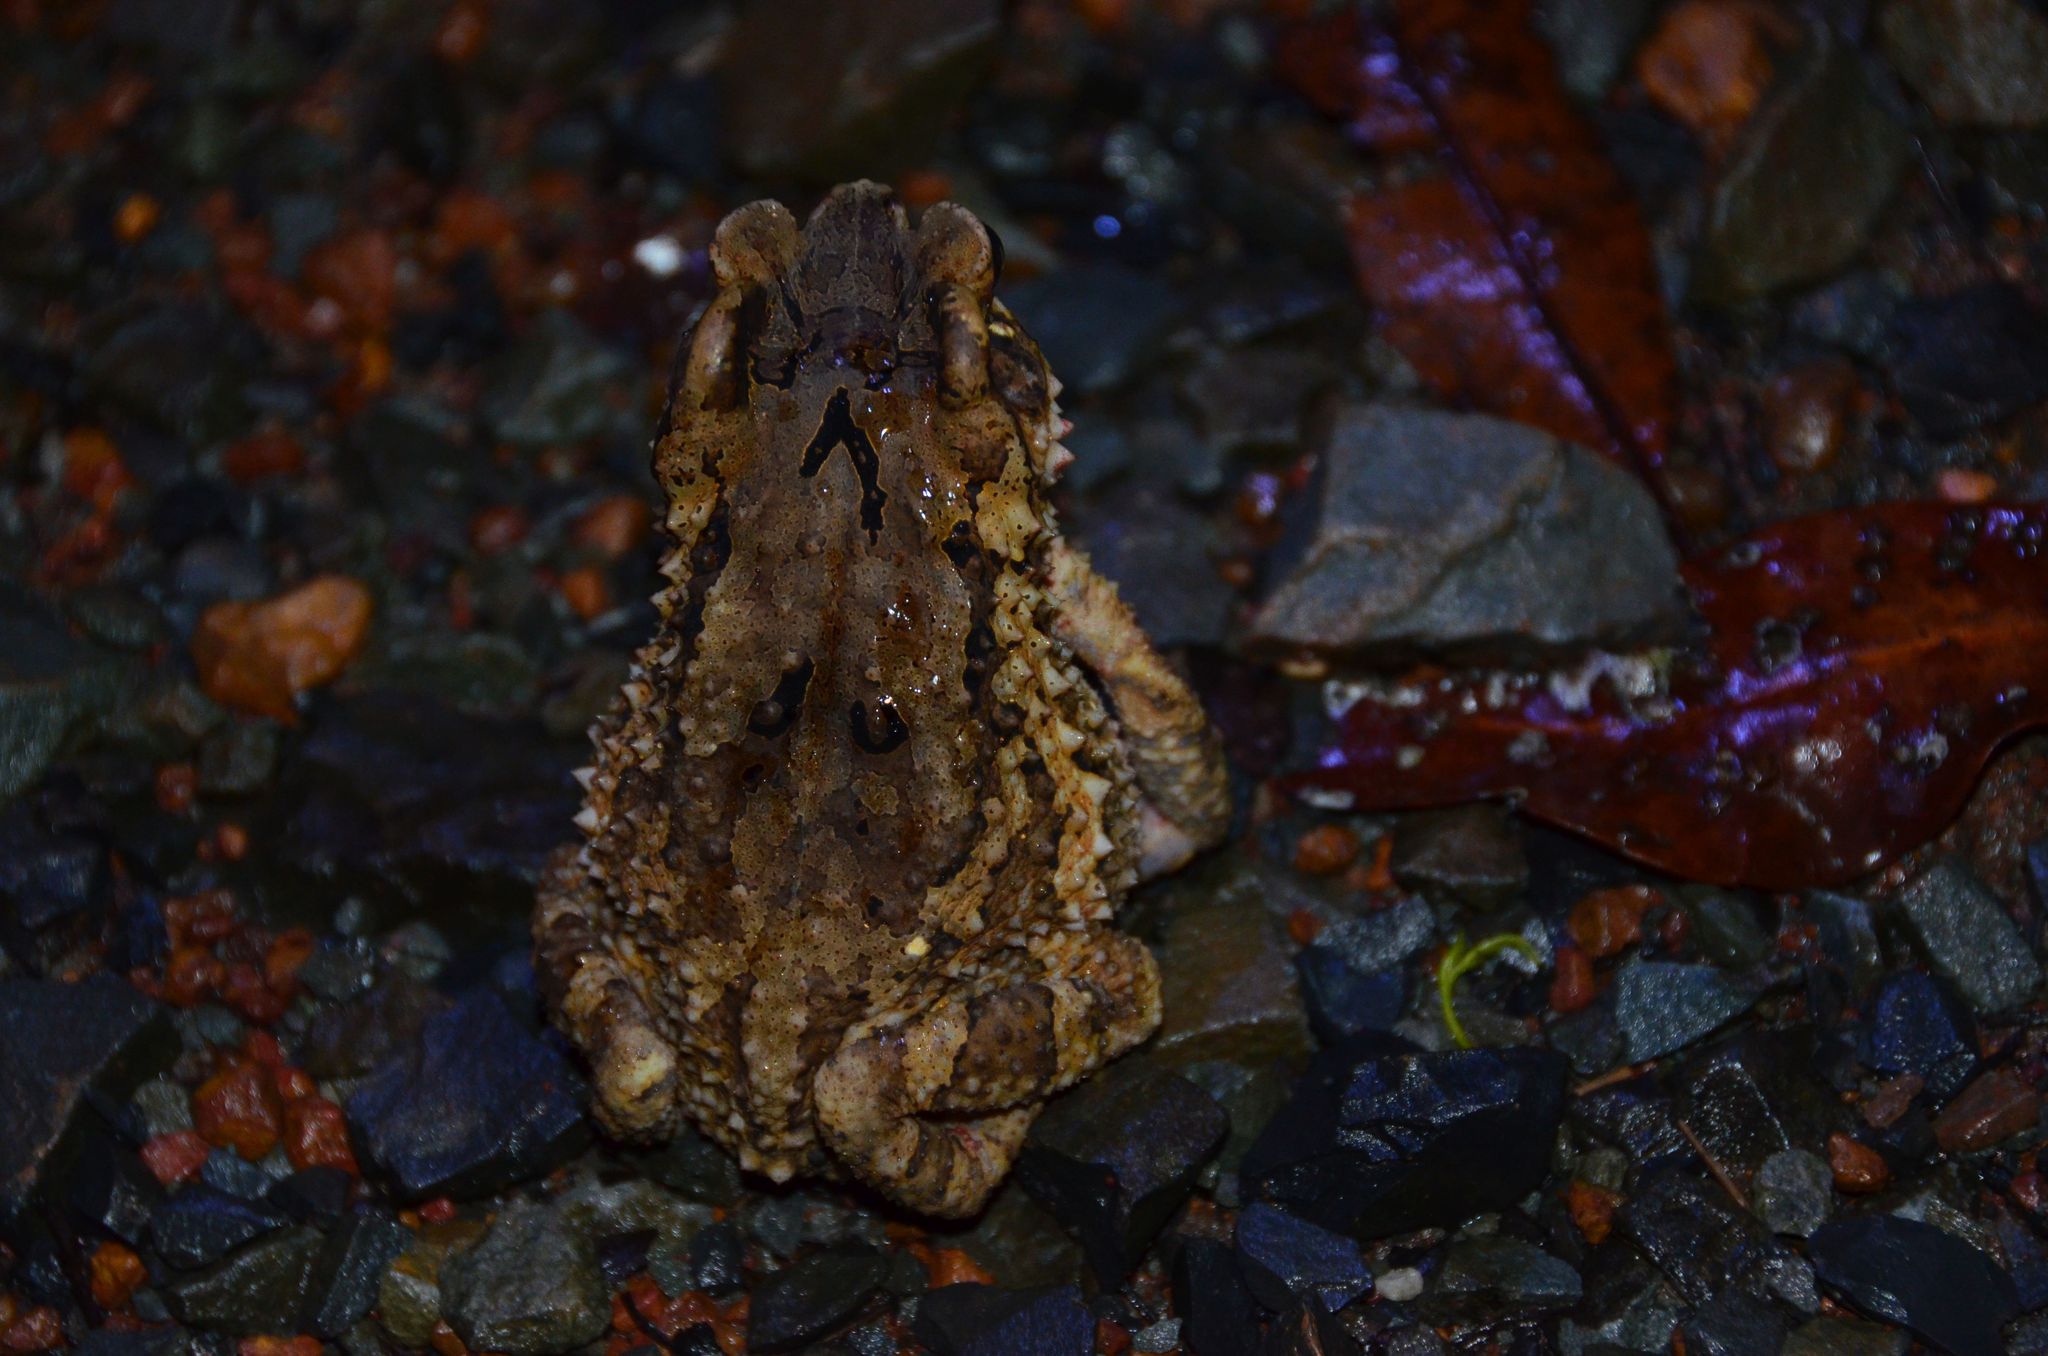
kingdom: Animalia
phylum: Chordata
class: Amphibia
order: Anura
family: Bufonidae
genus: Ingerophrynus
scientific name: Ingerophrynus galeatus
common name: Bony-headed toad
